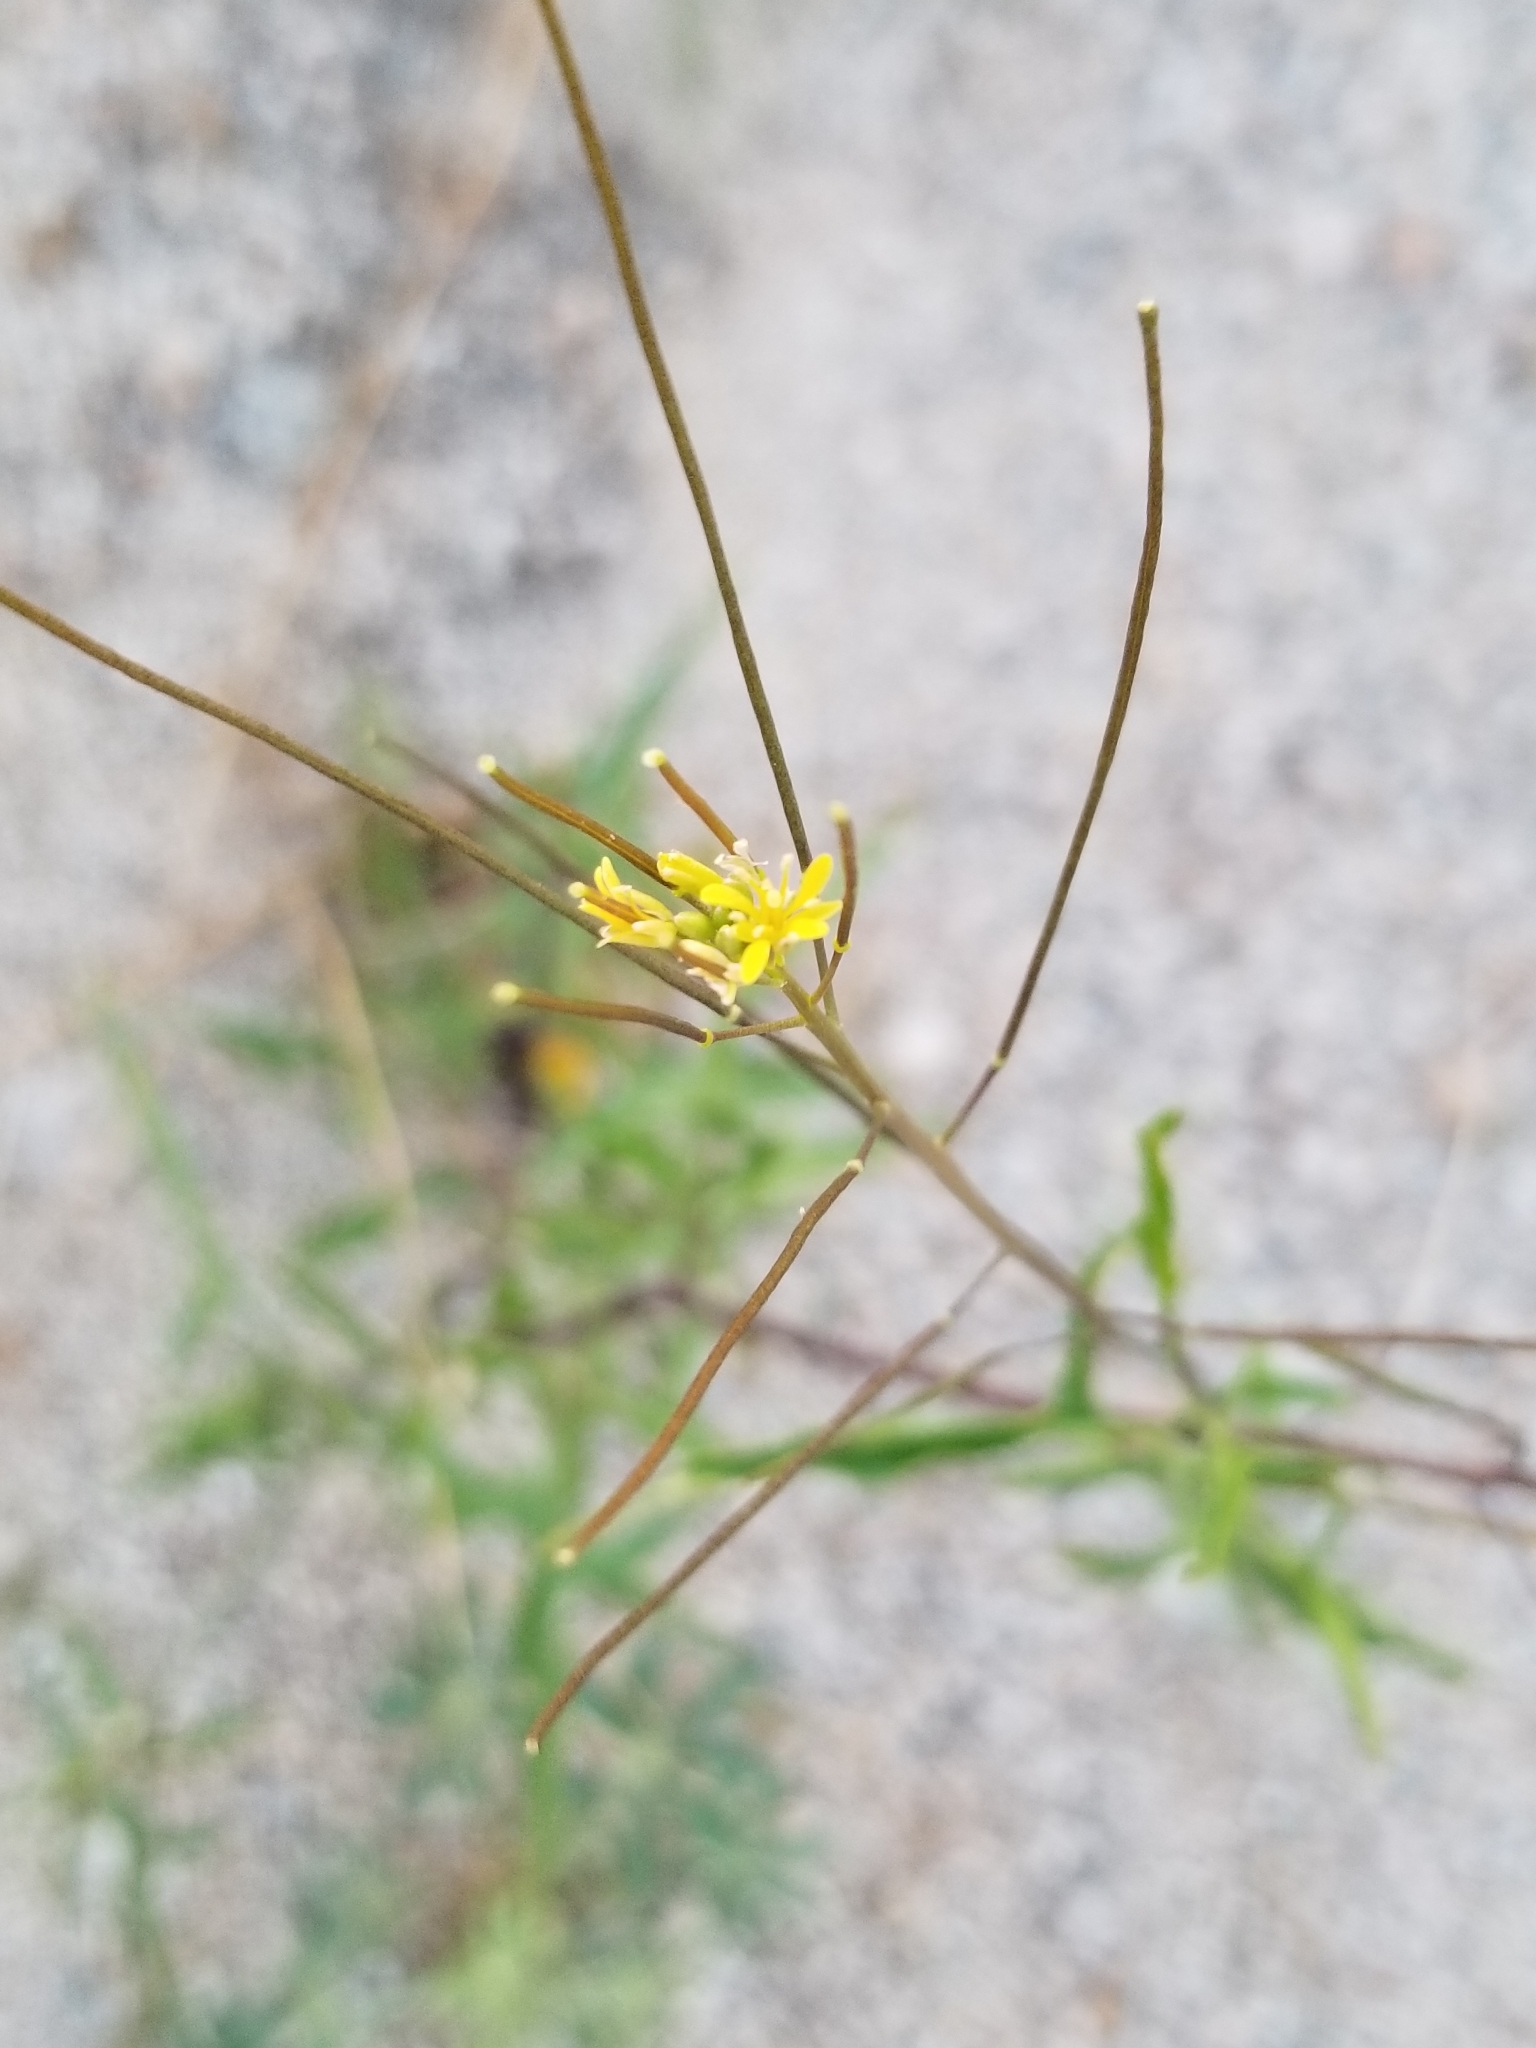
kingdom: Plantae
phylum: Tracheophyta
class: Magnoliopsida
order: Brassicales
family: Brassicaceae
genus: Sisymbrium
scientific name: Sisymbrium irio
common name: London rocket
